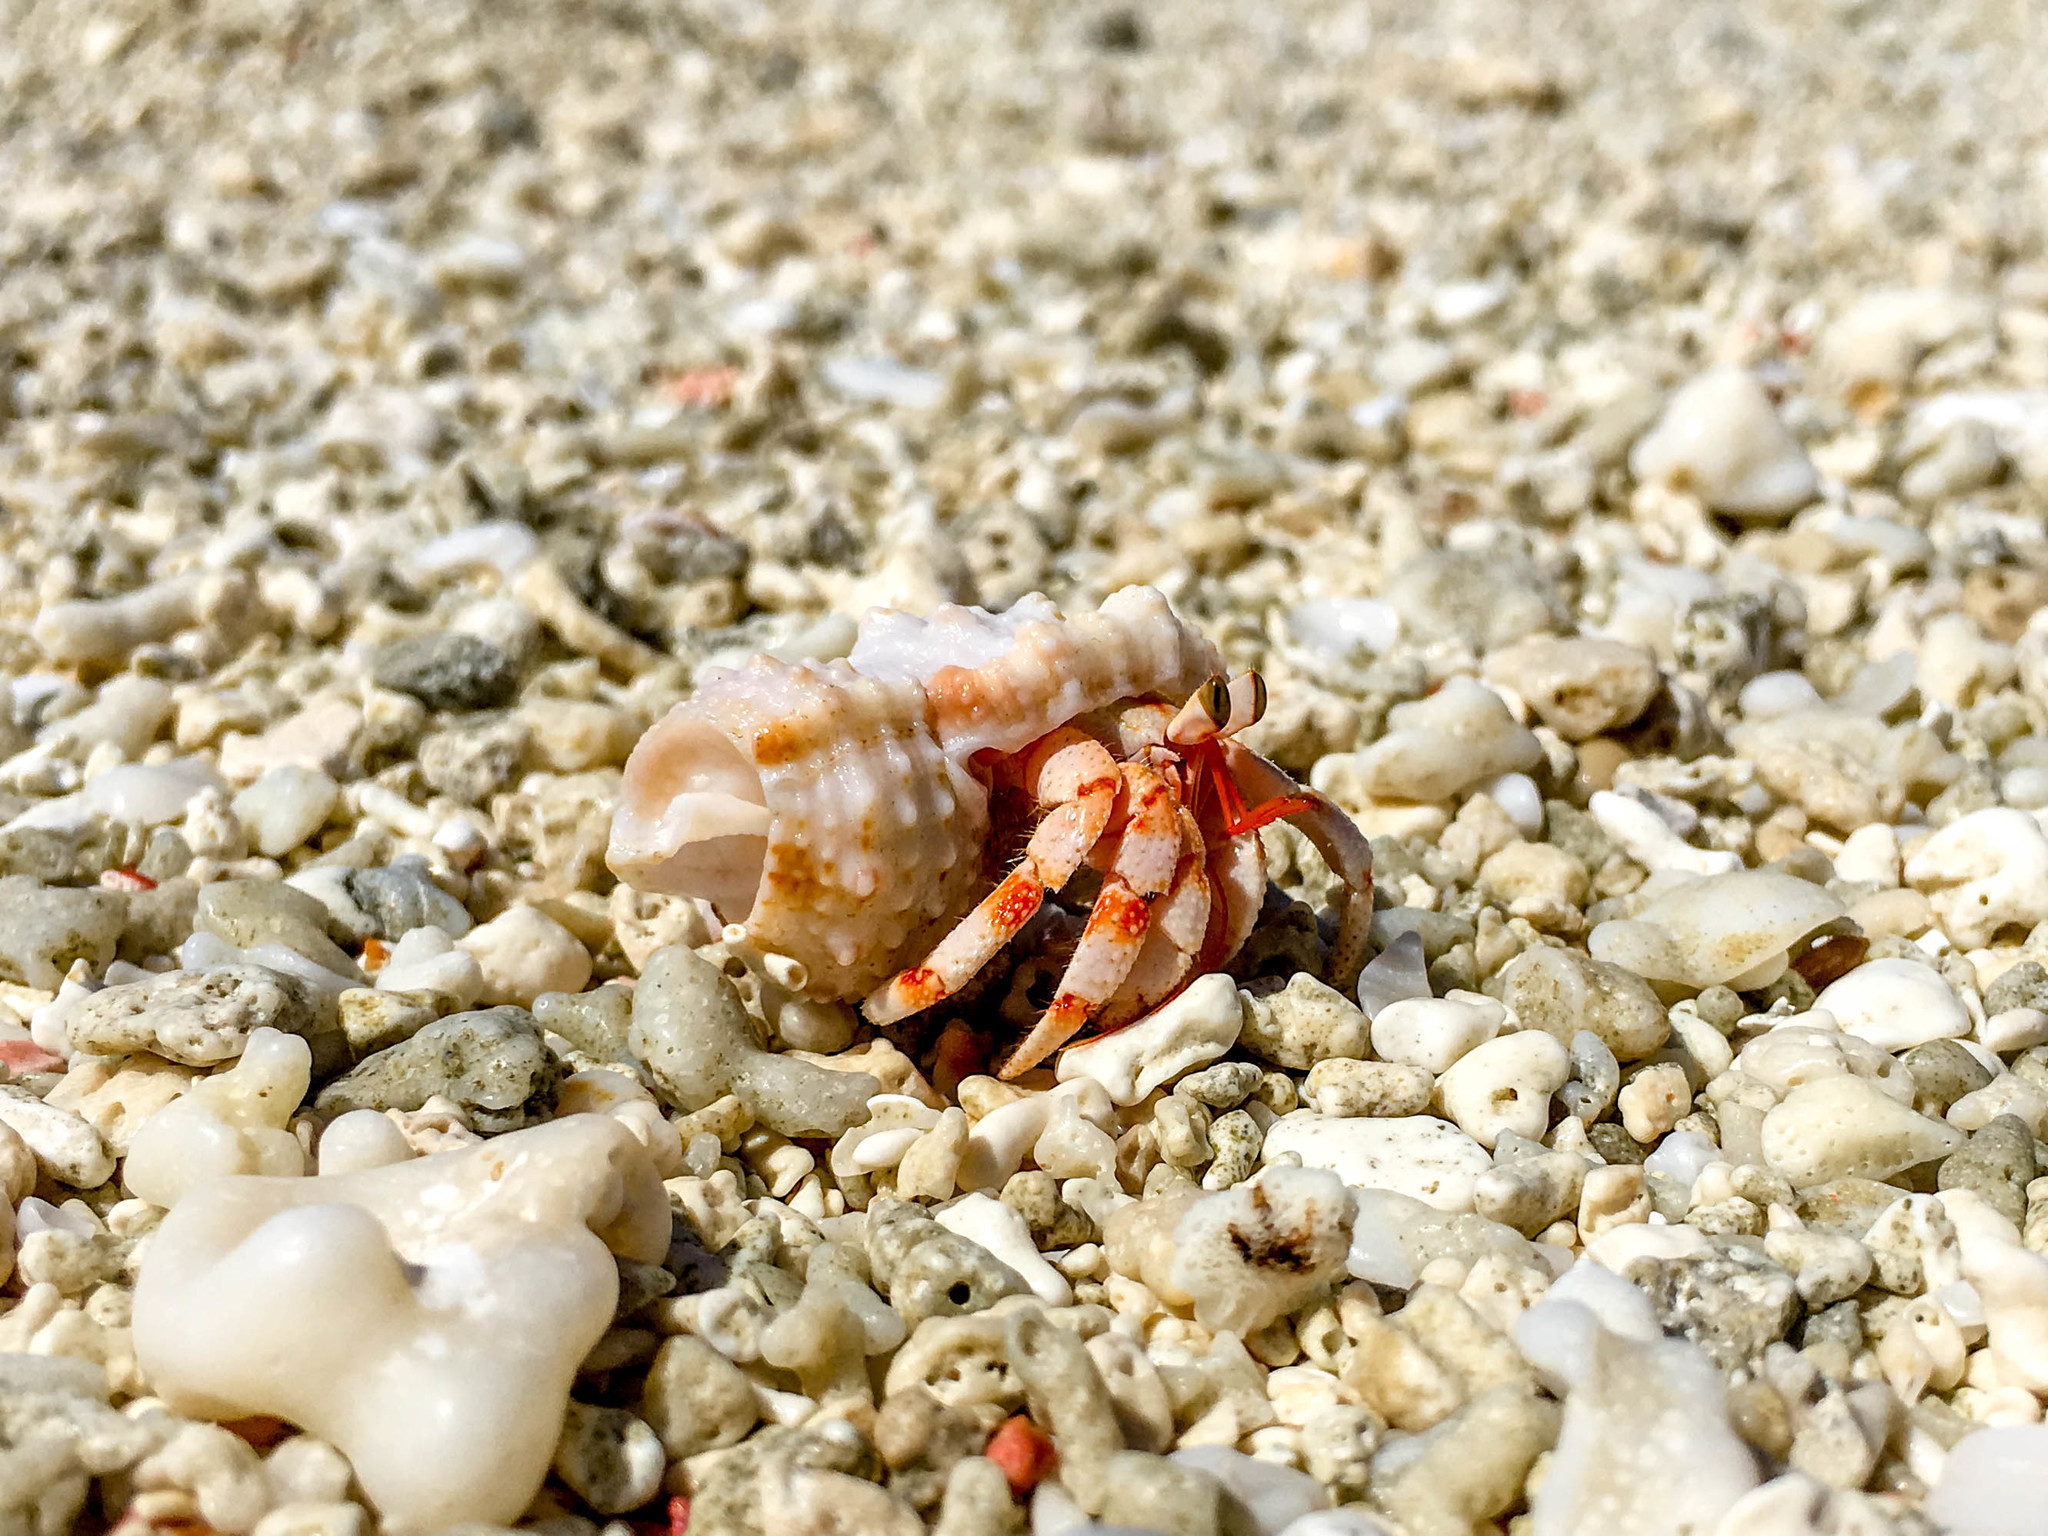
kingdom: Animalia
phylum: Arthropoda
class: Malacostraca
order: Decapoda
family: Coenobitidae
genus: Coenobita
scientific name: Coenobita perlatus
